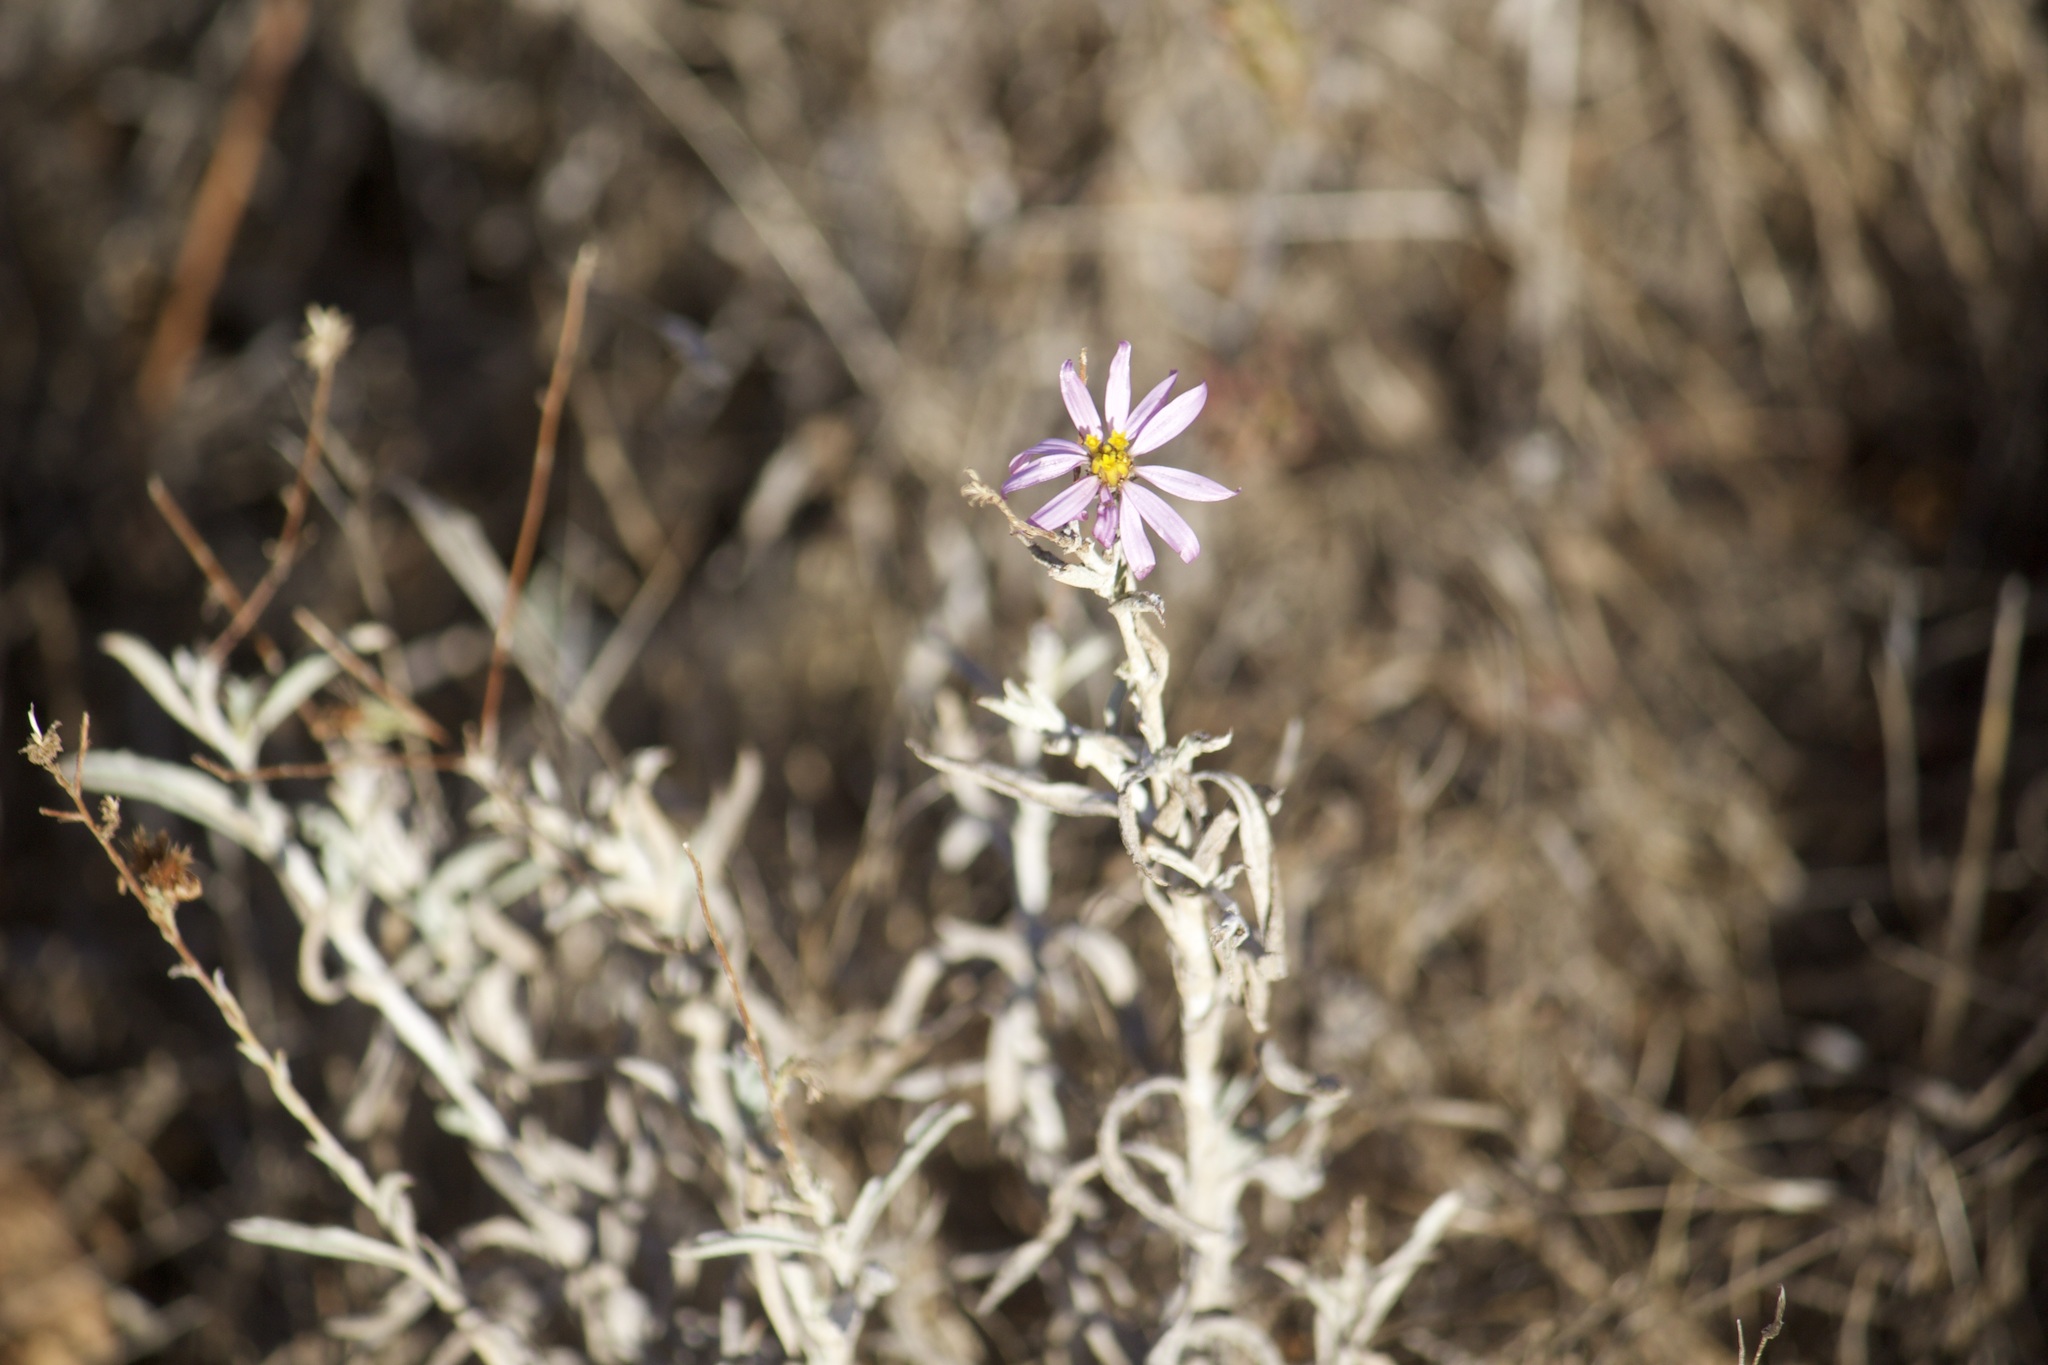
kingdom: Plantae
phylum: Tracheophyta
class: Magnoliopsida
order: Asterales
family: Asteraceae
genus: Corethrogyne
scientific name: Corethrogyne filaginifolia
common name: Sand-aster
